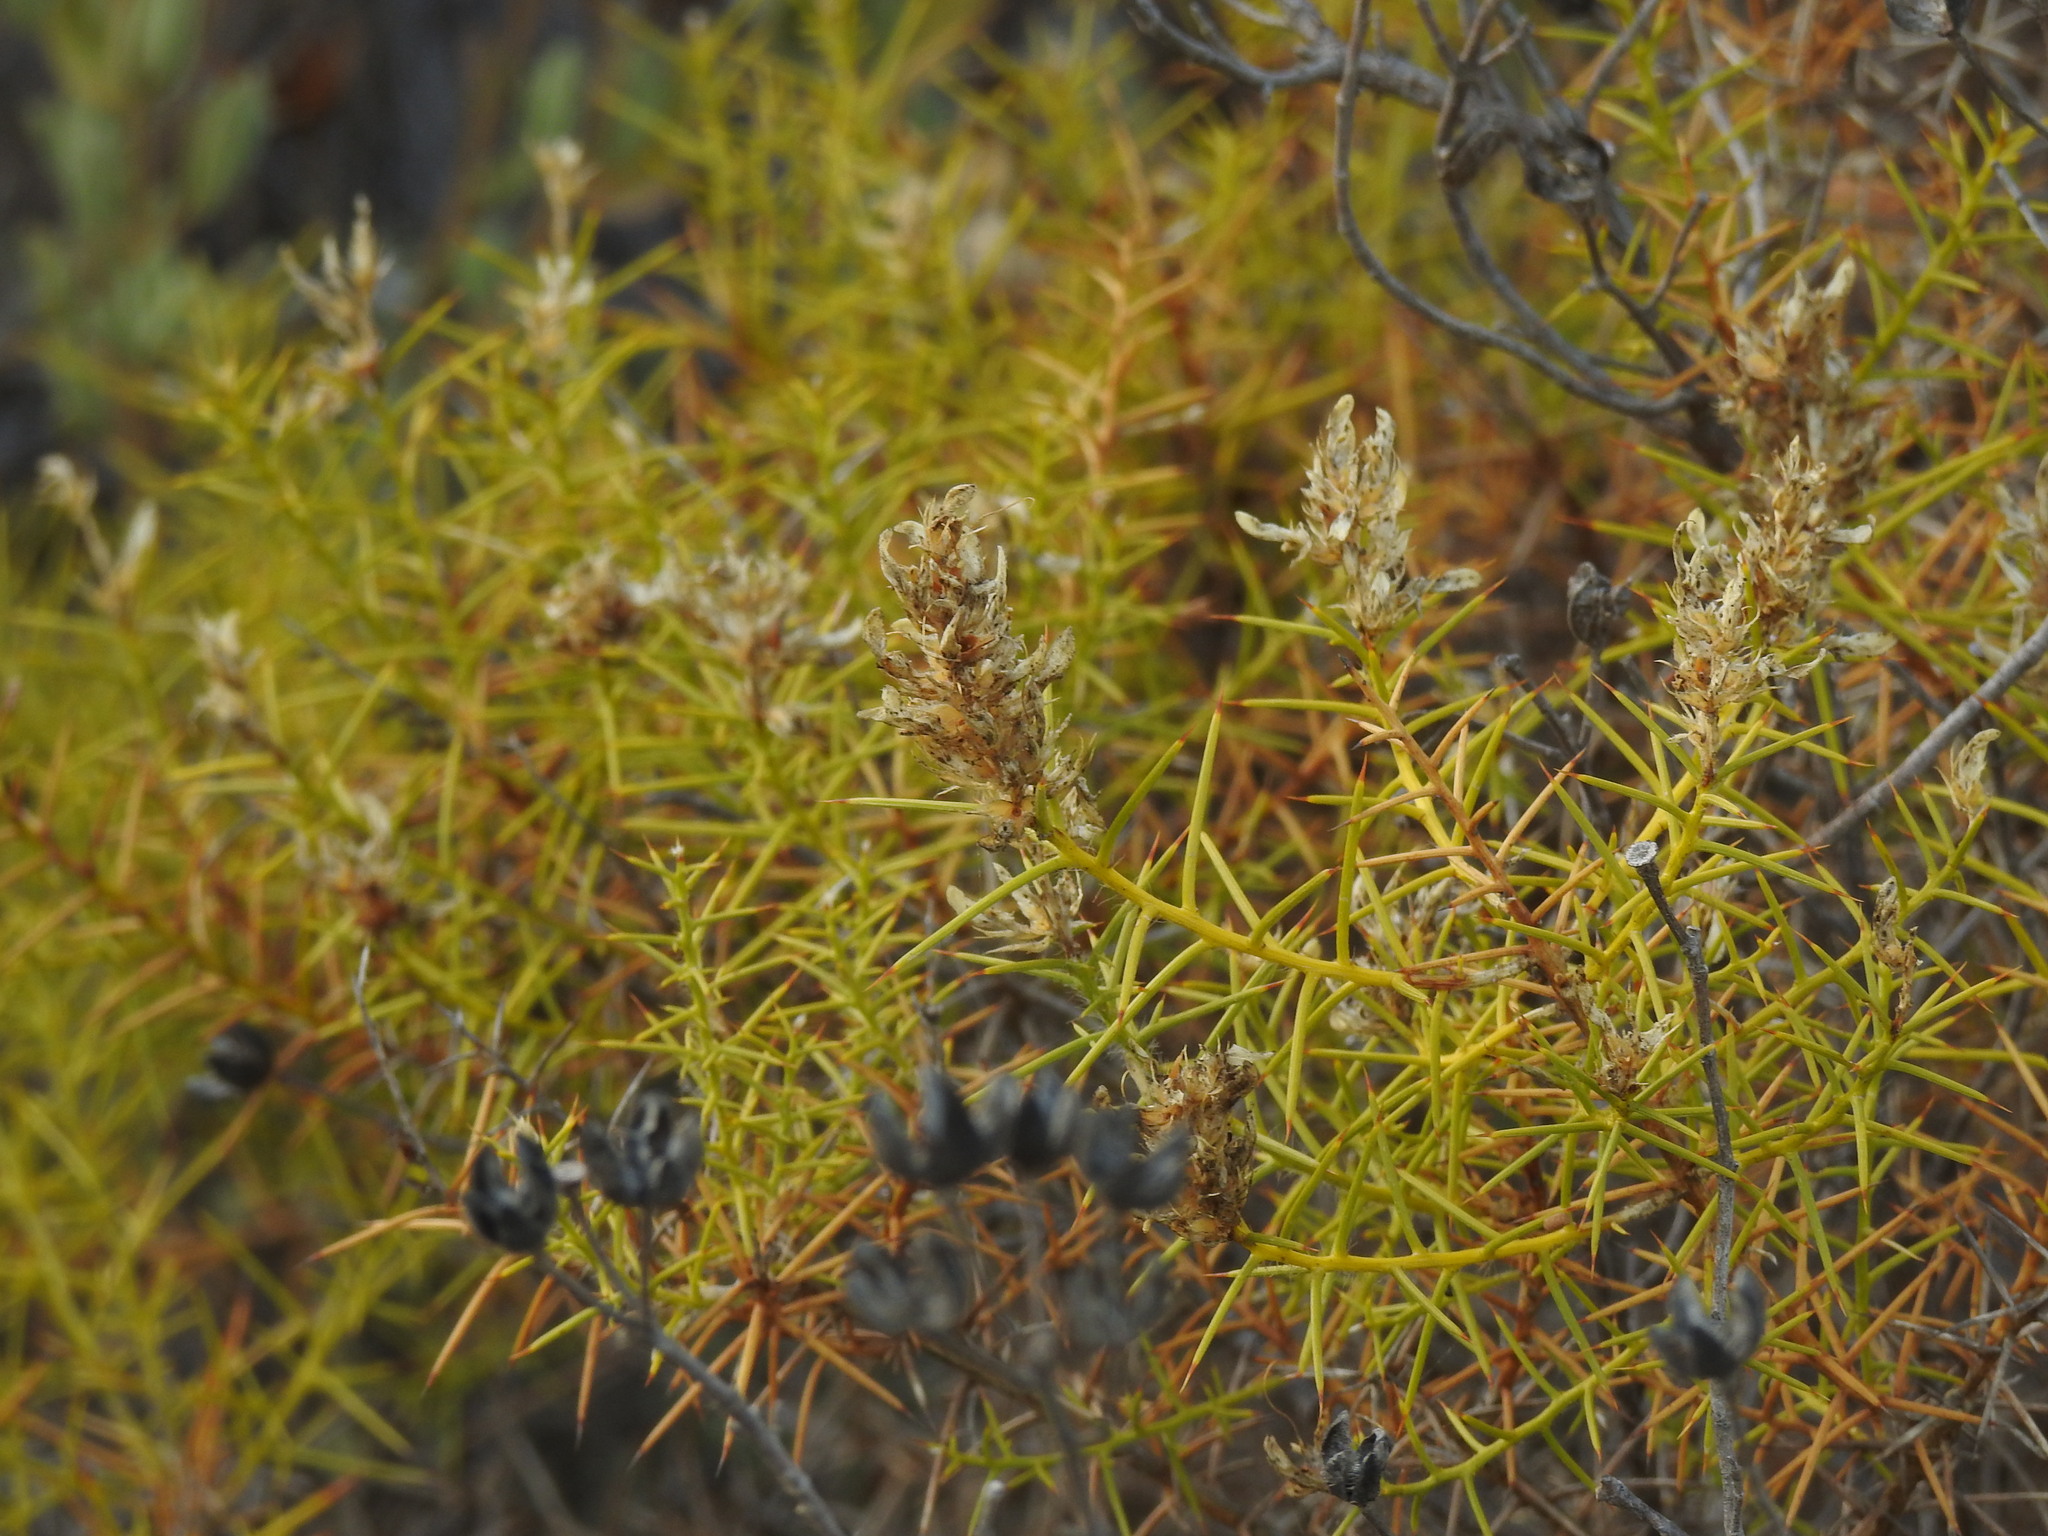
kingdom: Plantae
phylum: Tracheophyta
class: Magnoliopsida
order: Fabales
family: Fabaceae
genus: Genista
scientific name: Genista hirsuta
